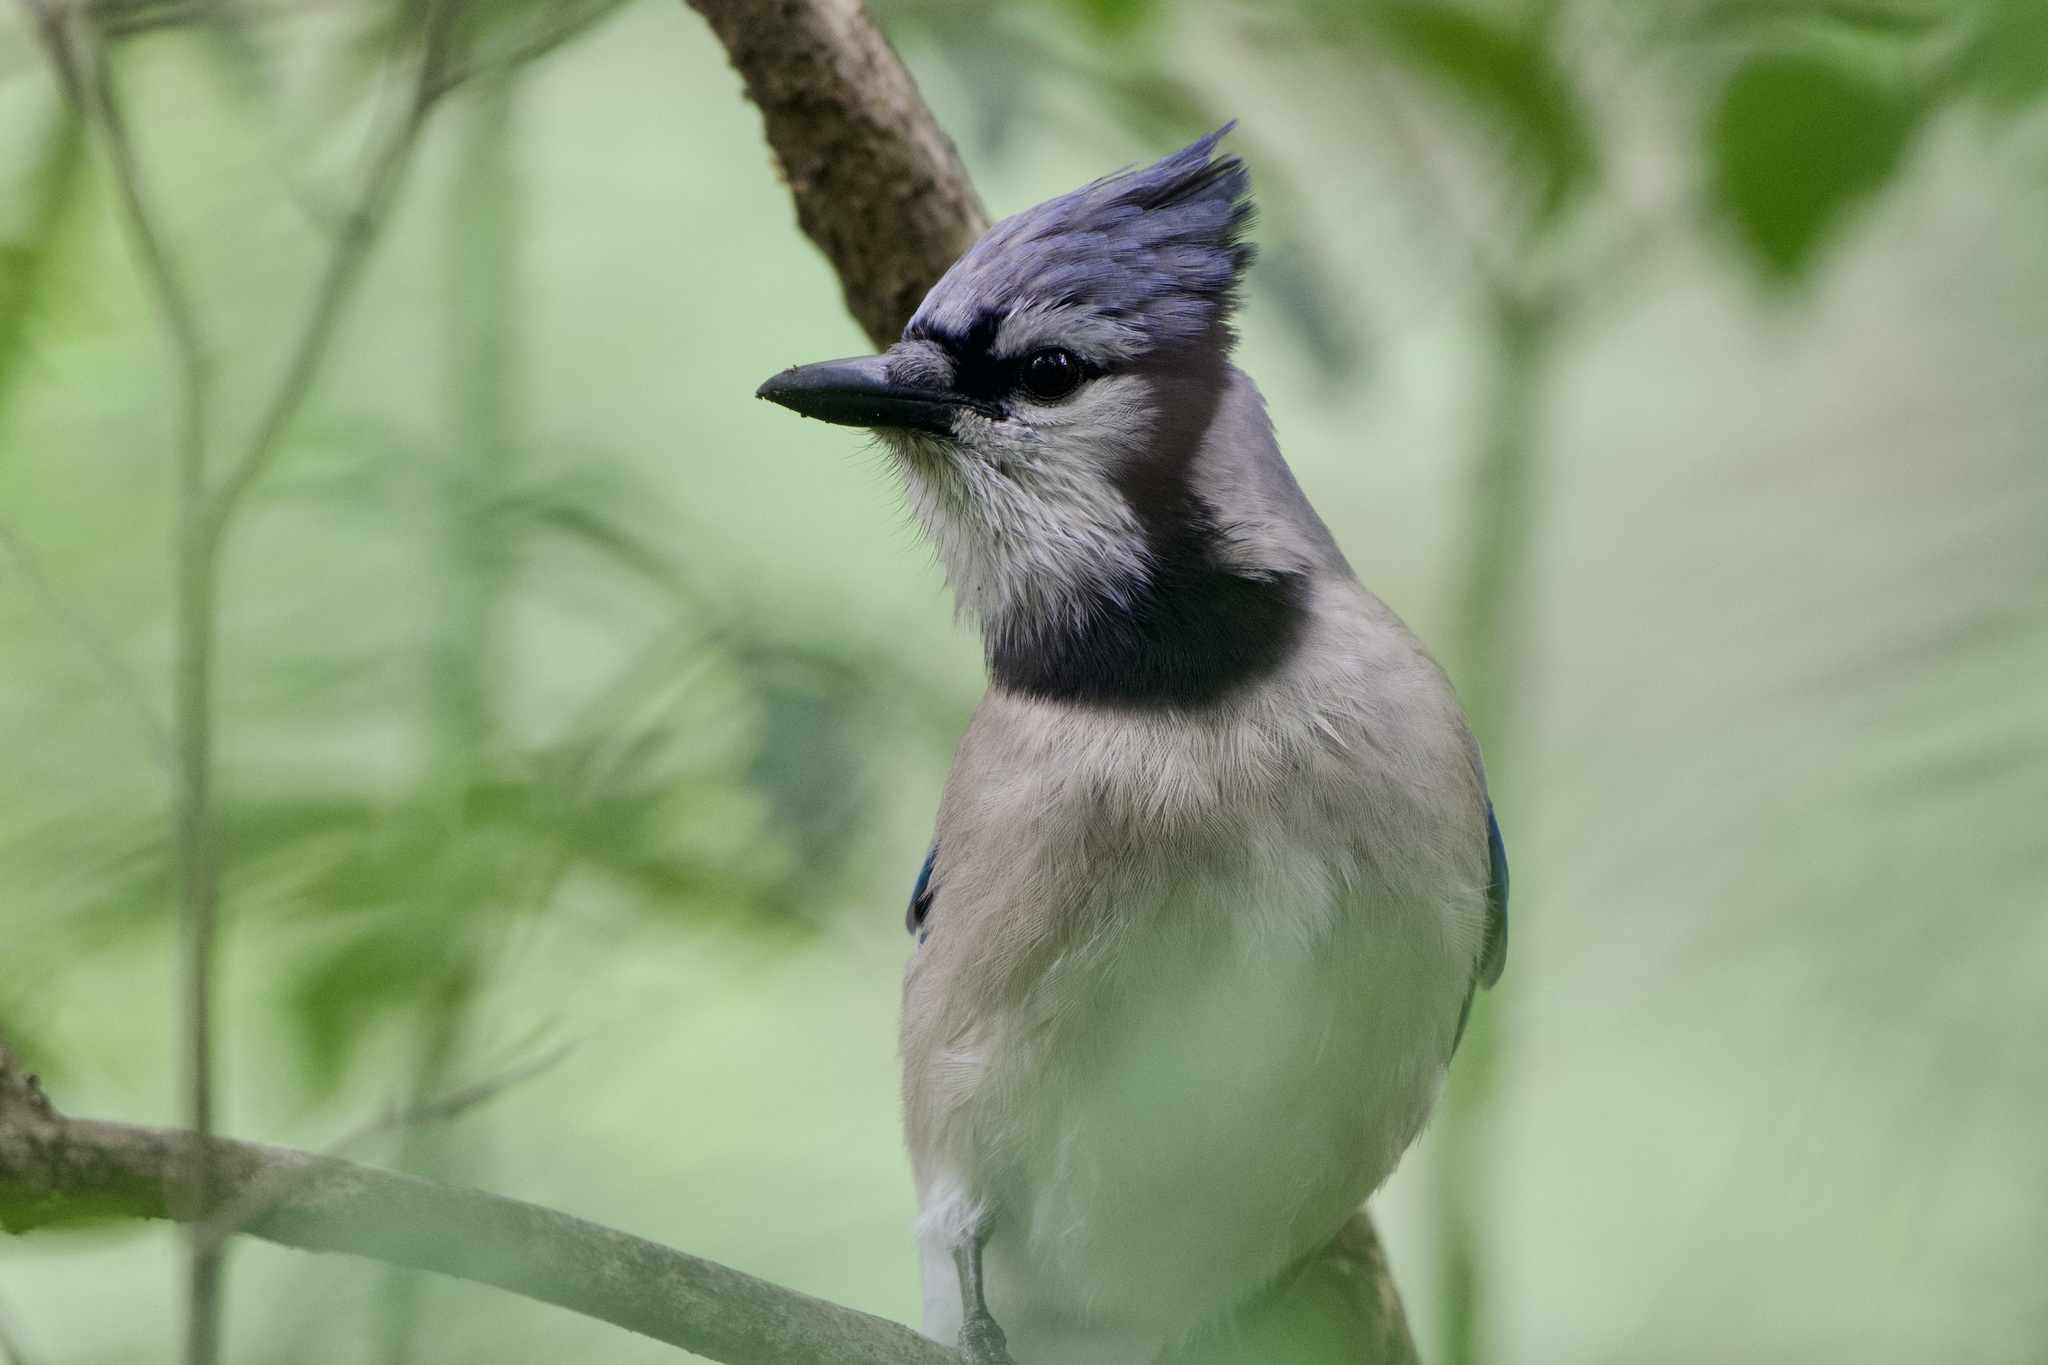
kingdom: Animalia
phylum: Chordata
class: Aves
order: Passeriformes
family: Corvidae
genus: Cyanocitta
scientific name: Cyanocitta cristata
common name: Blue jay
